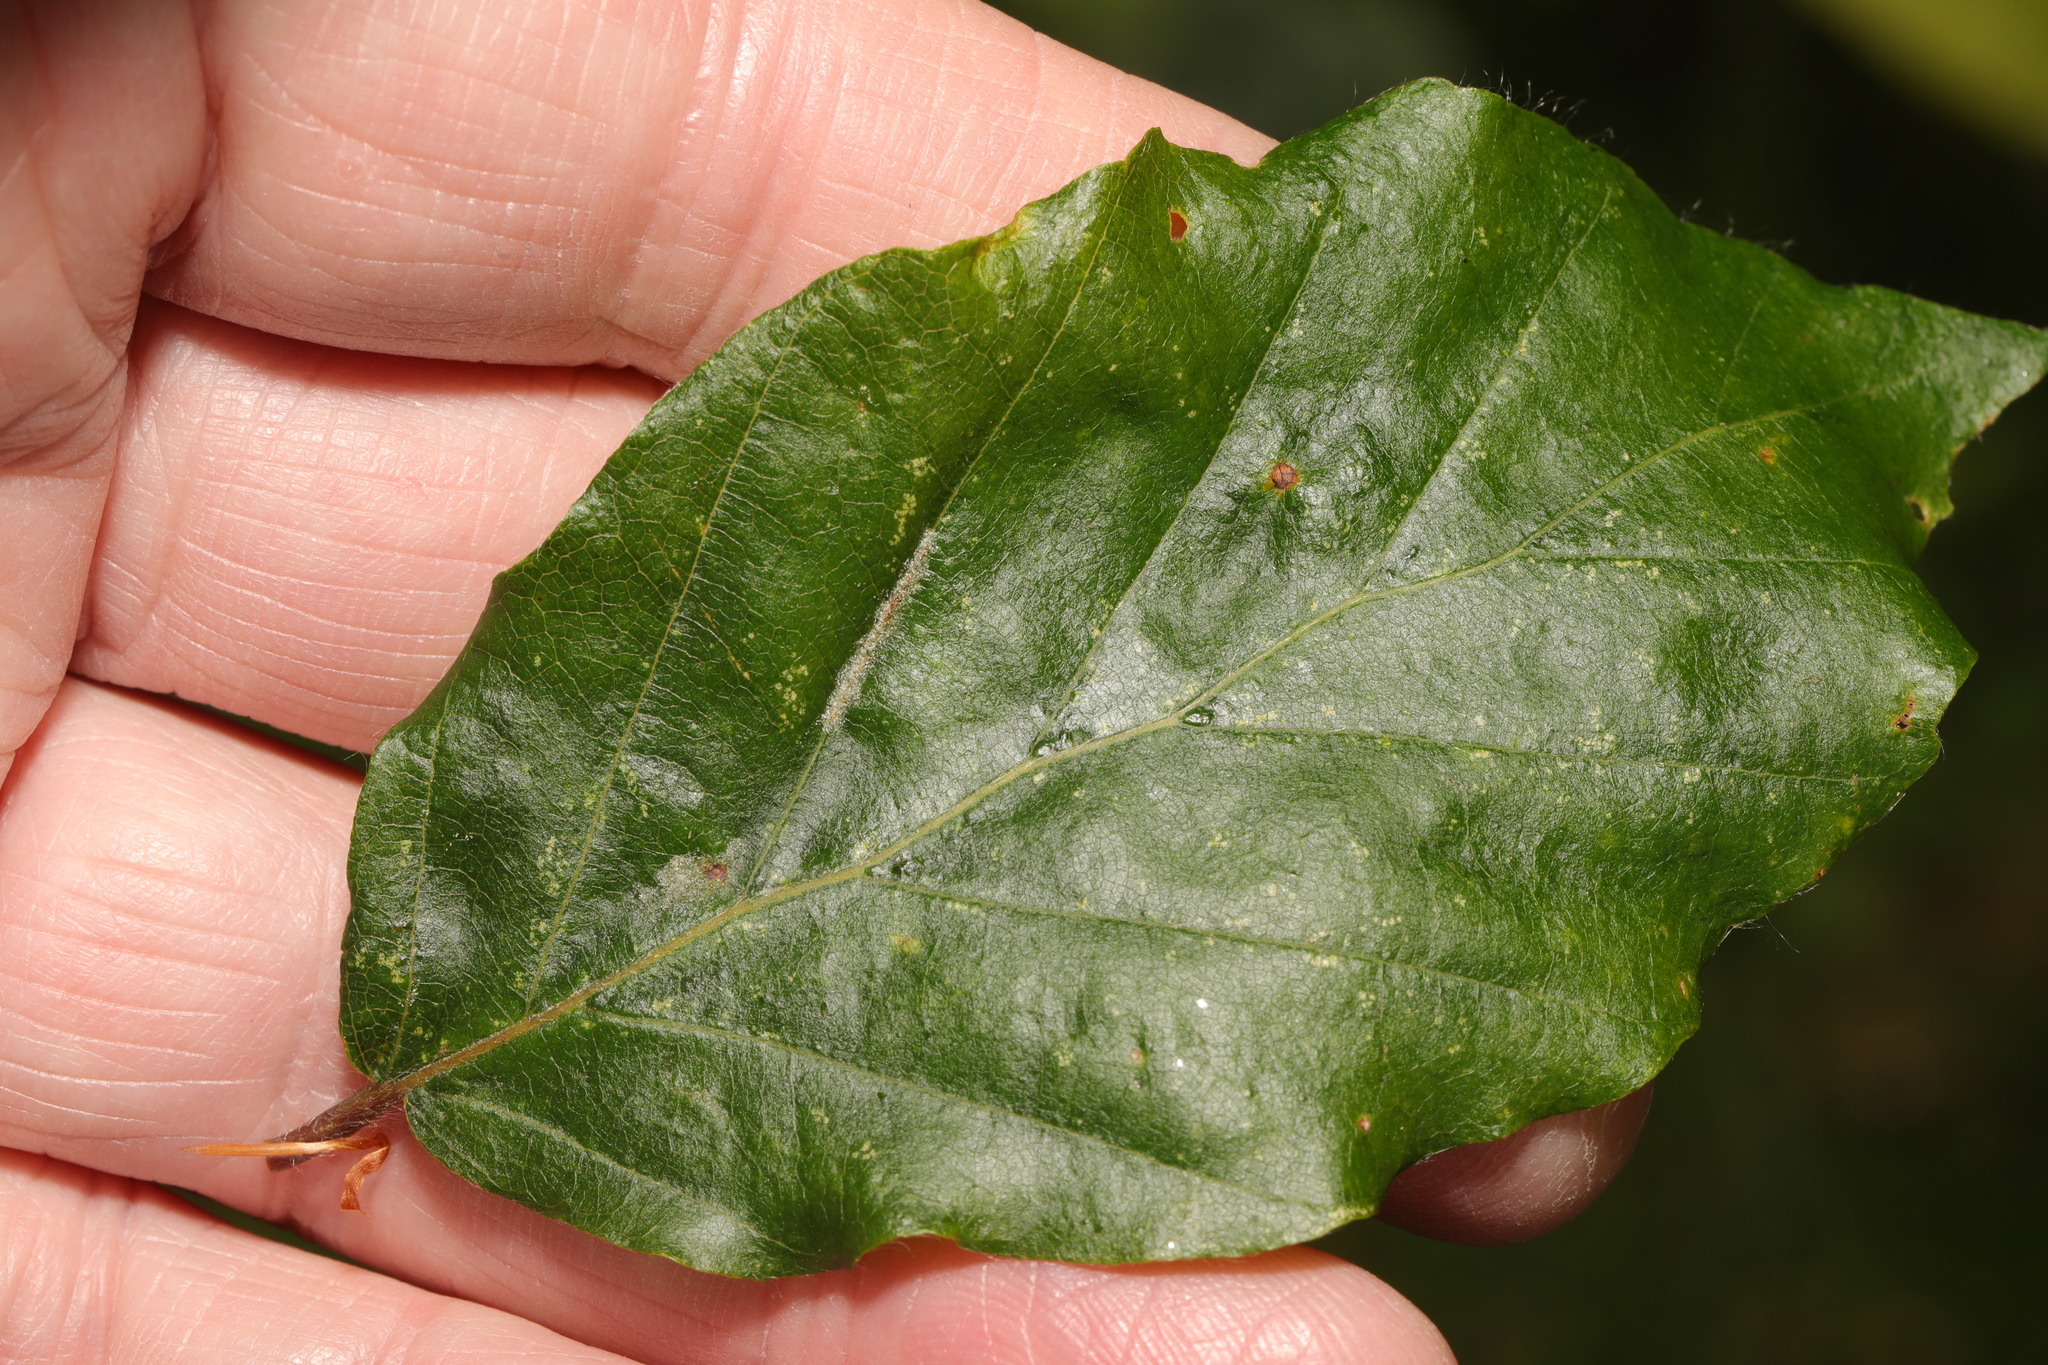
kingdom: Animalia
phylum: Arthropoda
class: Arachnida
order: Trombidiformes
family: Eriophyidae
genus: Aceria
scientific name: Aceria nervisequa
